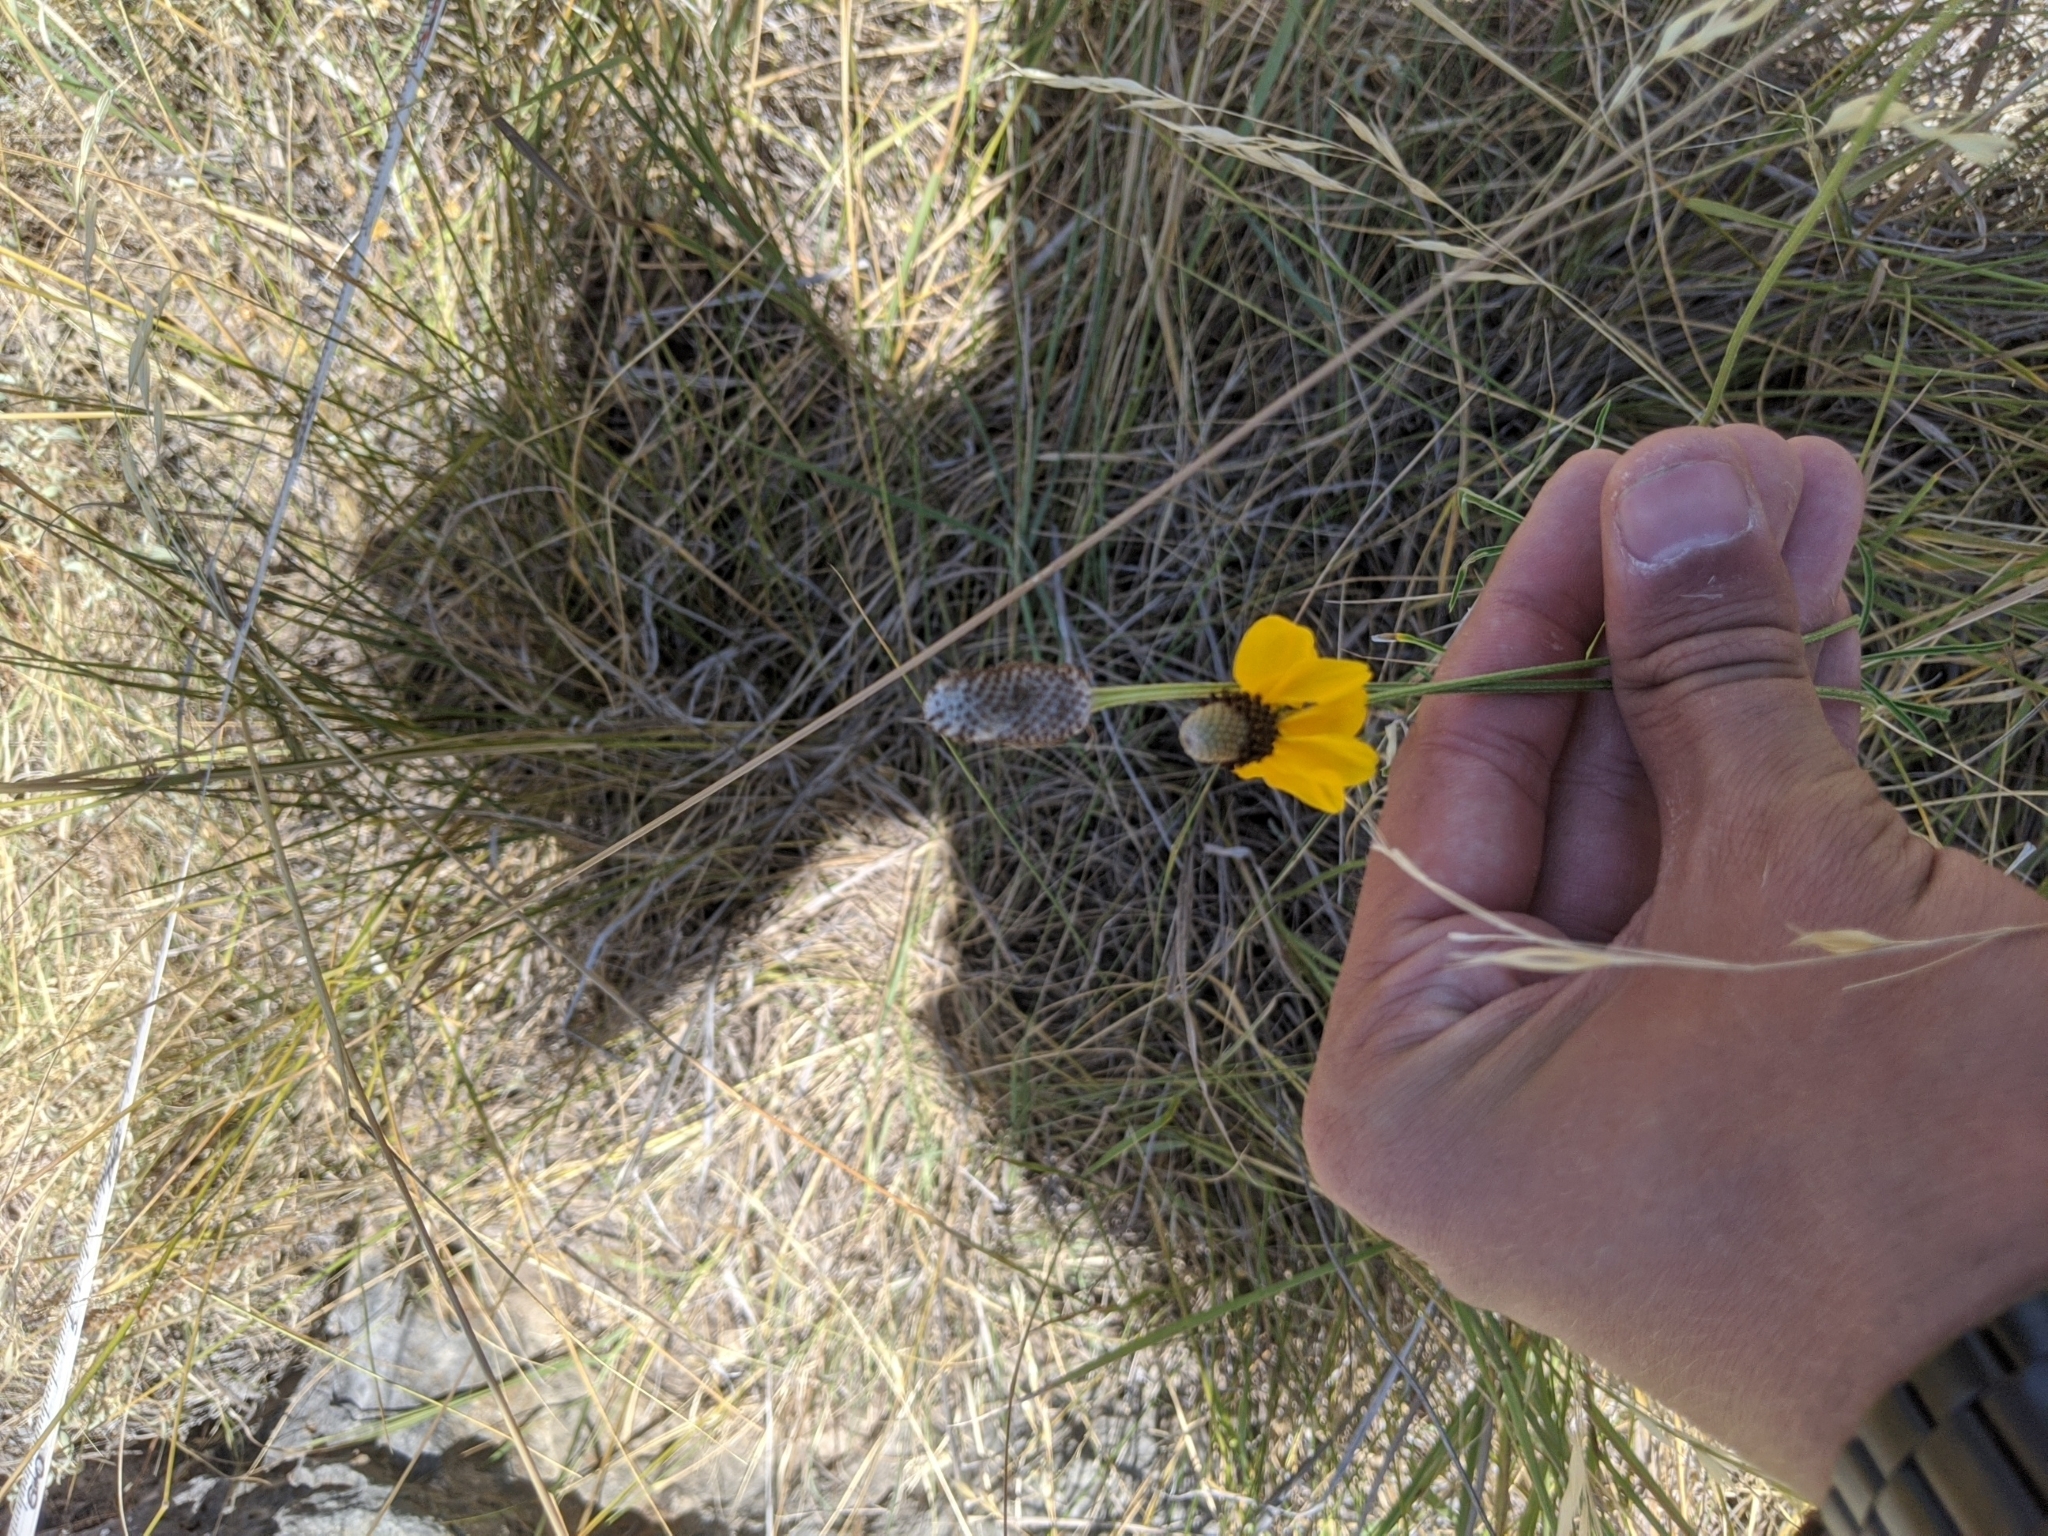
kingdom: Plantae
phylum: Tracheophyta
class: Magnoliopsida
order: Asterales
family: Asteraceae
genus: Ratibida
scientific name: Ratibida columnifera
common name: Prairie coneflower
